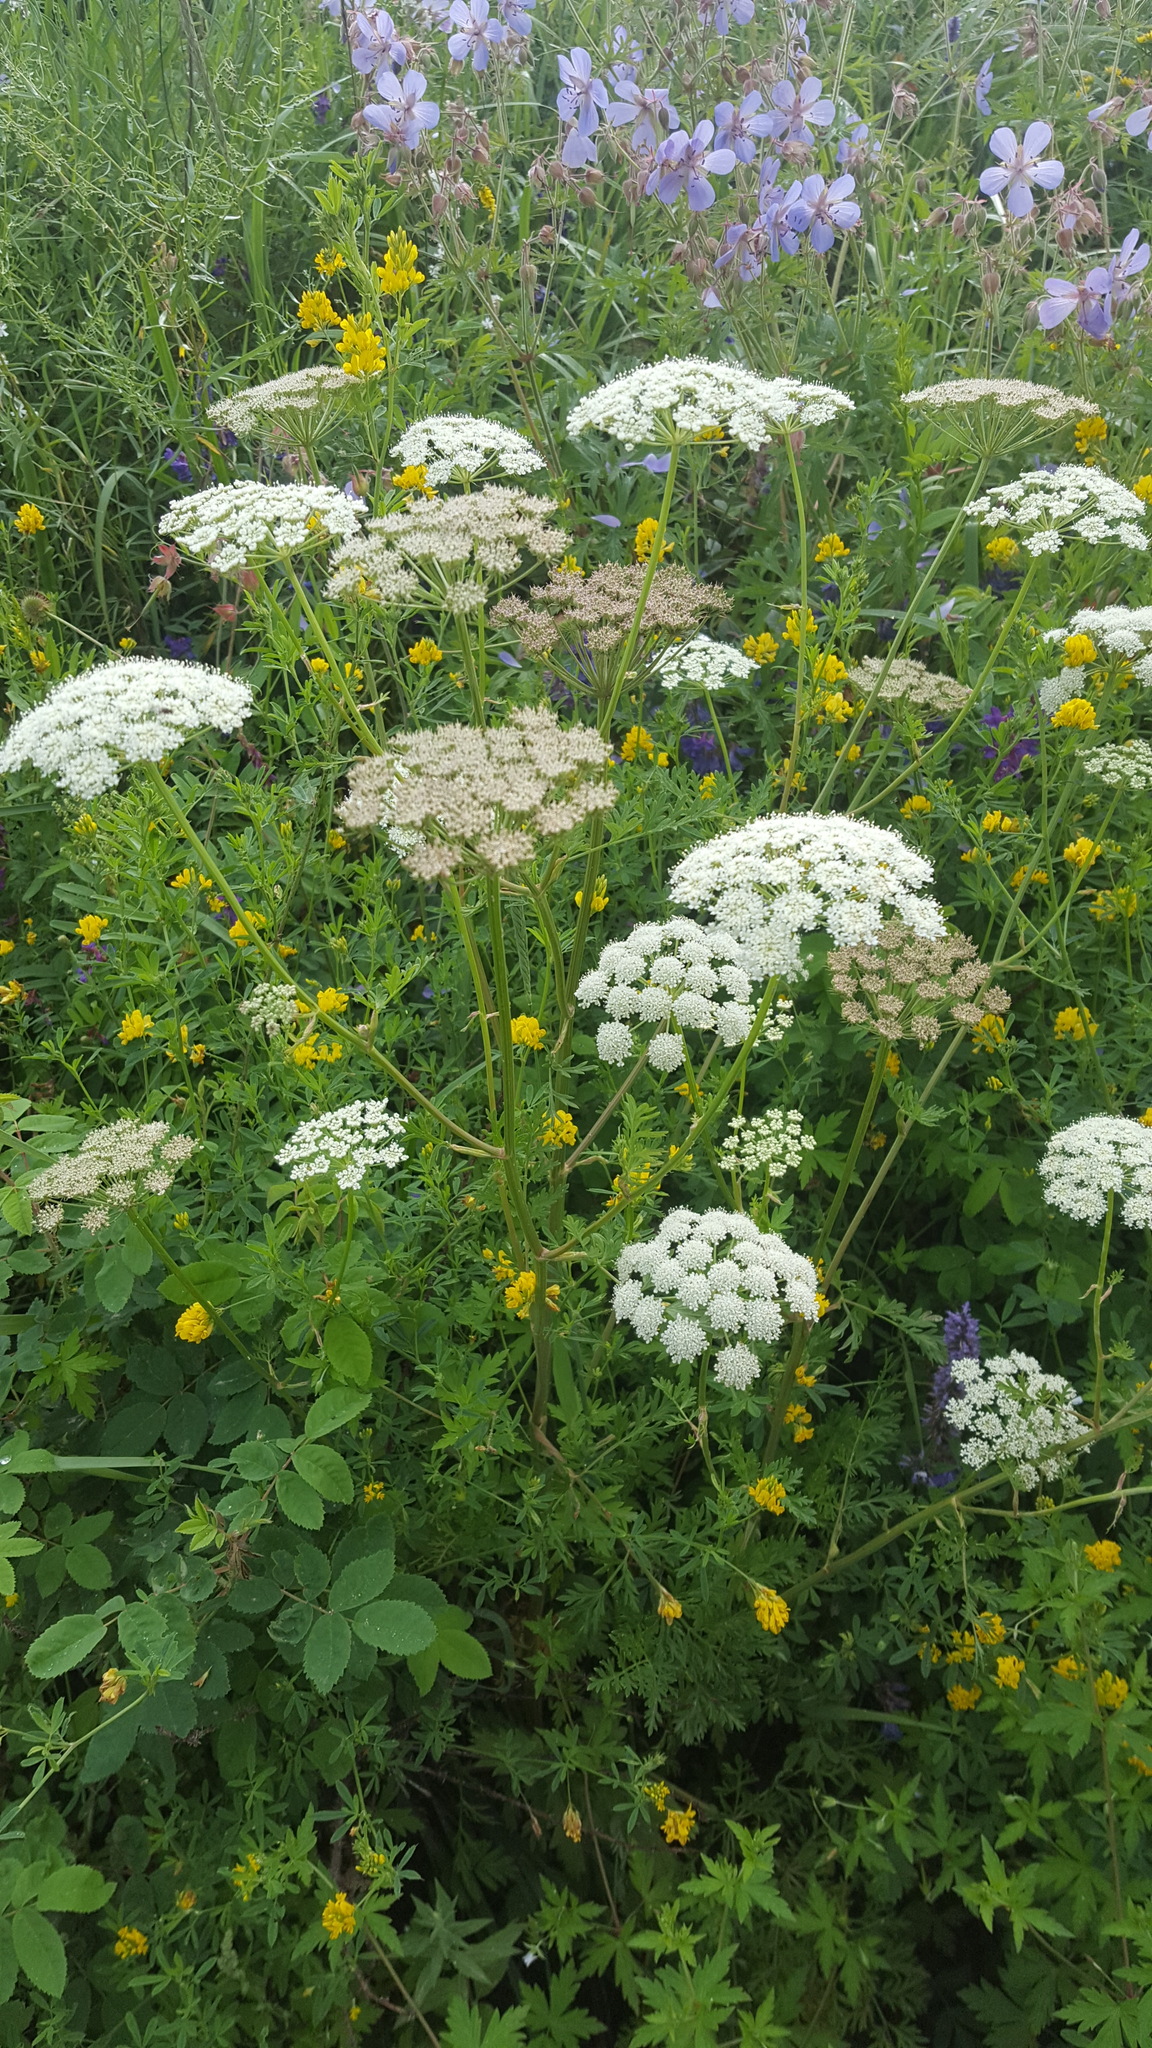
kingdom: Plantae
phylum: Tracheophyta
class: Magnoliopsida
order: Apiales
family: Apiaceae
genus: Kitagawia
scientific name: Kitagawia terebinthacea
